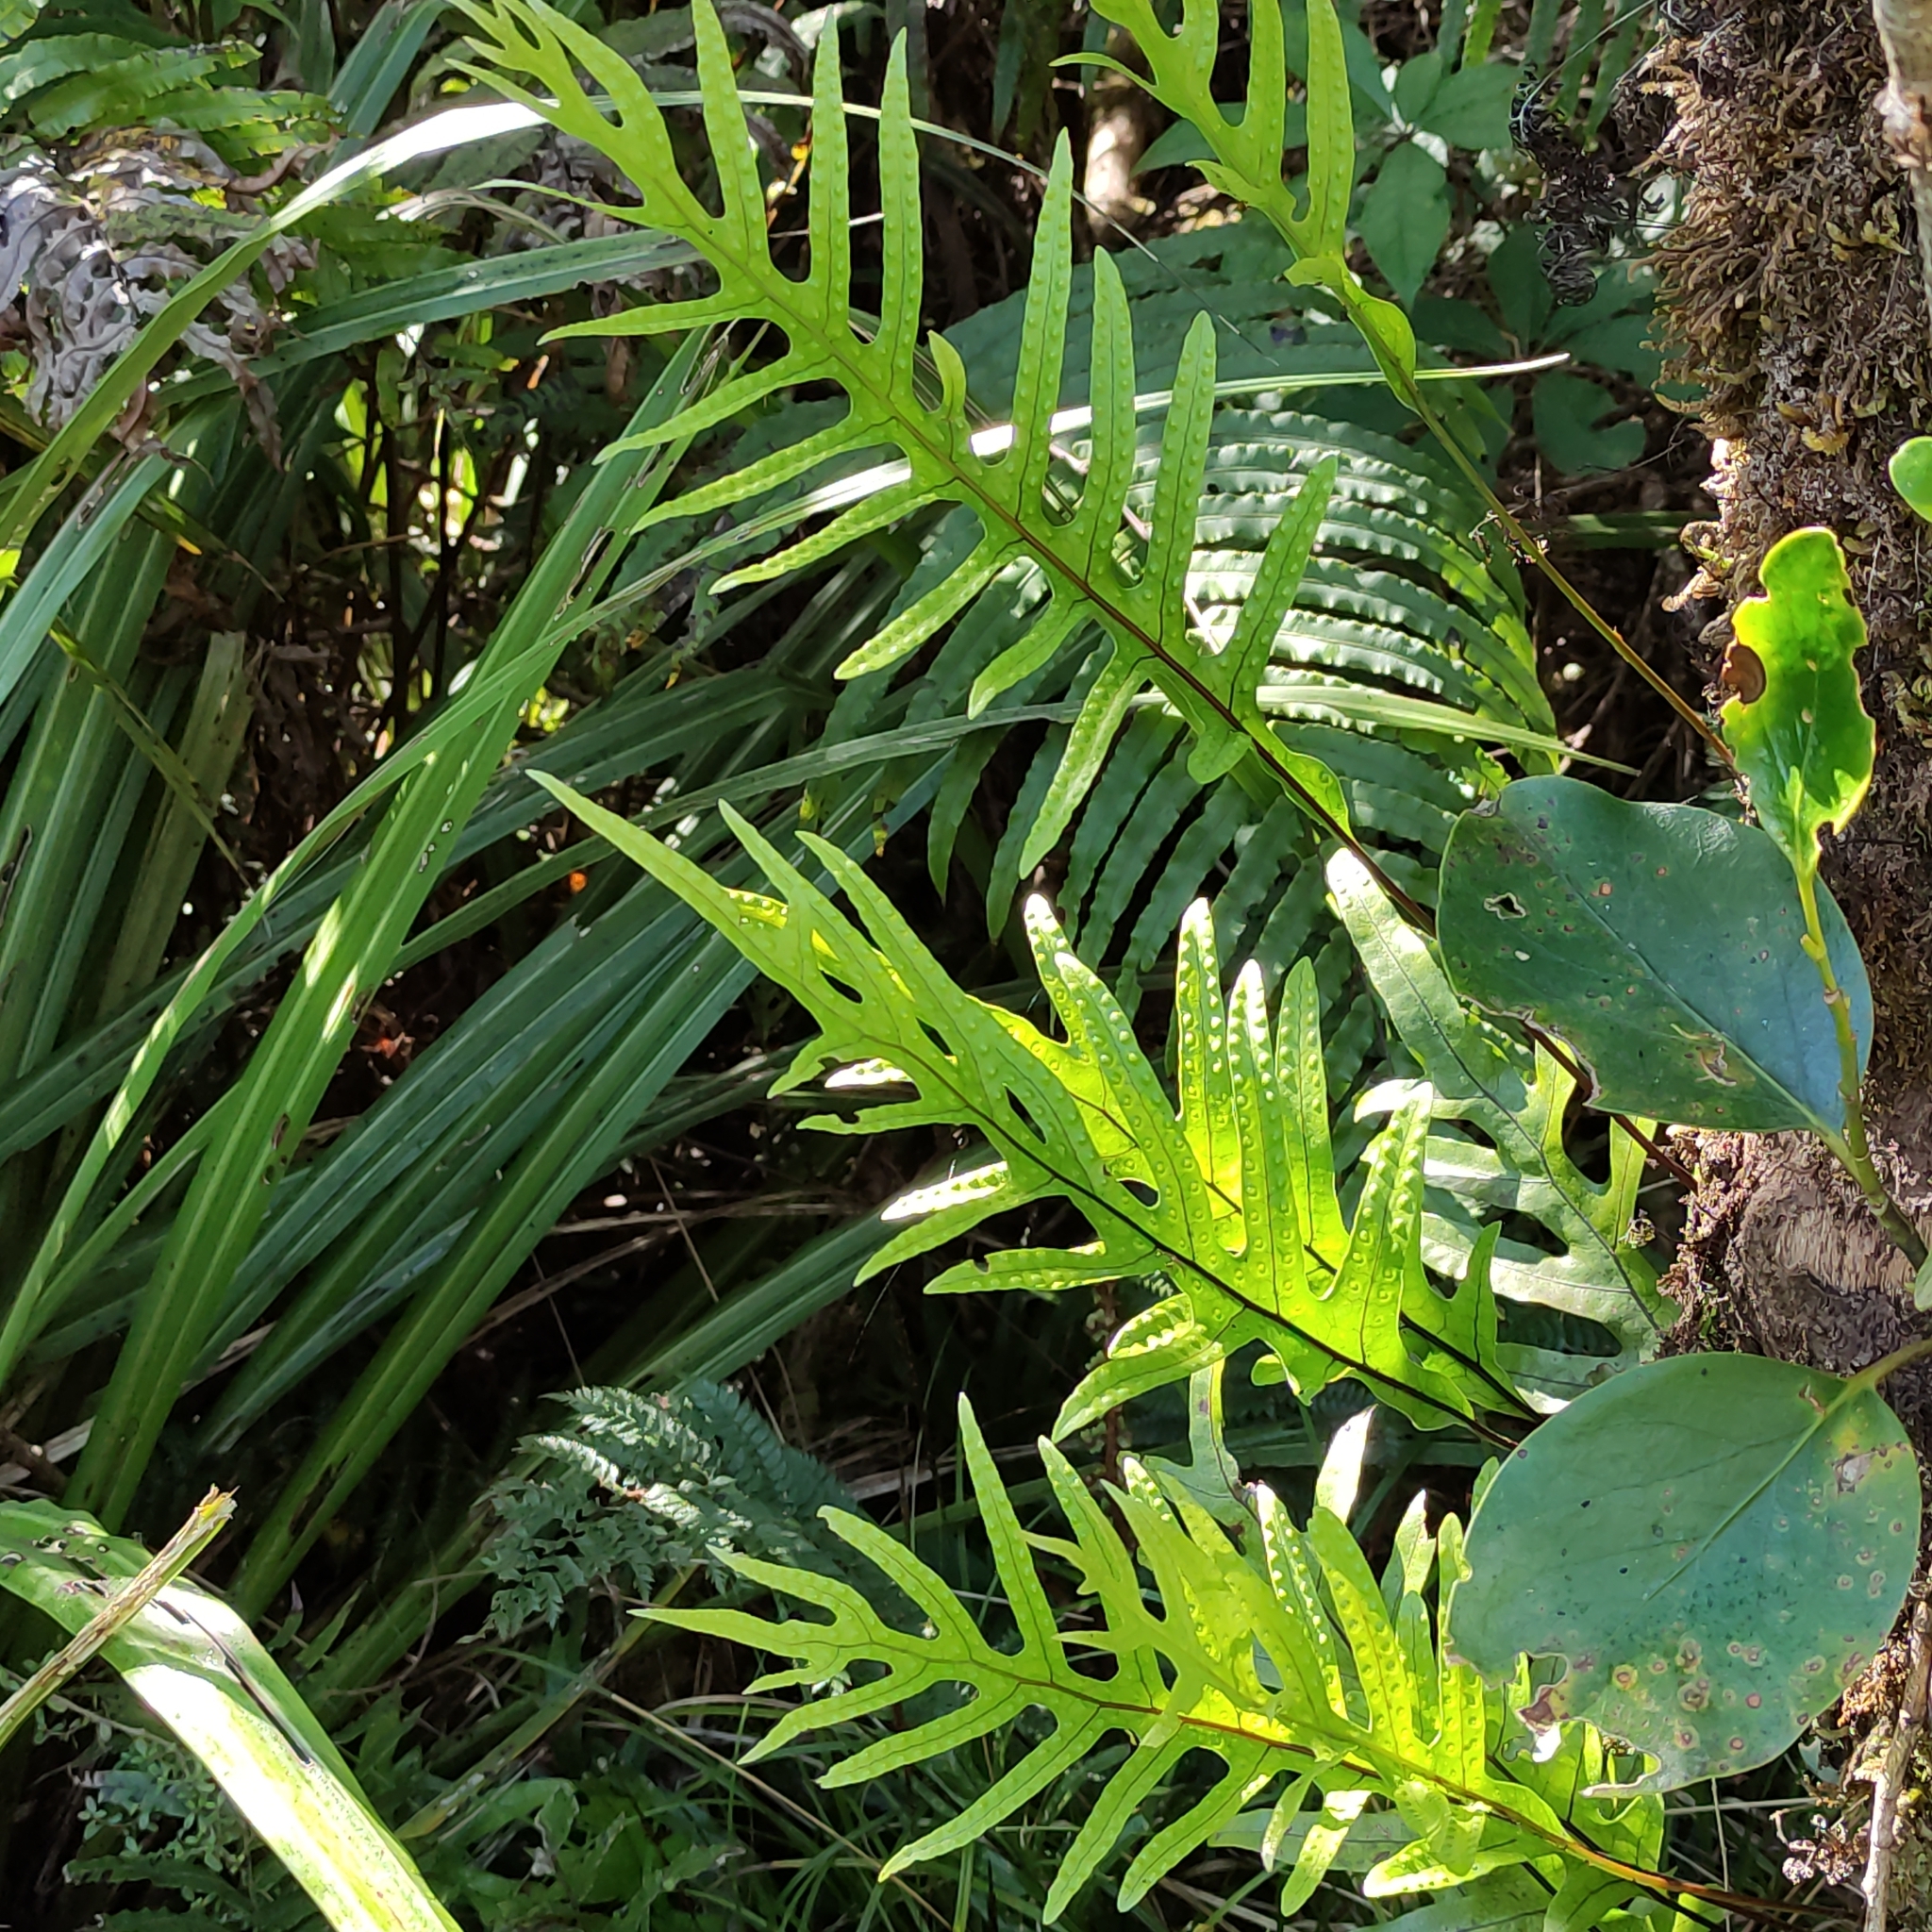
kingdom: Plantae
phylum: Tracheophyta
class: Polypodiopsida
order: Polypodiales
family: Polypodiaceae
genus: Lecanopteris
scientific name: Lecanopteris pustulata
